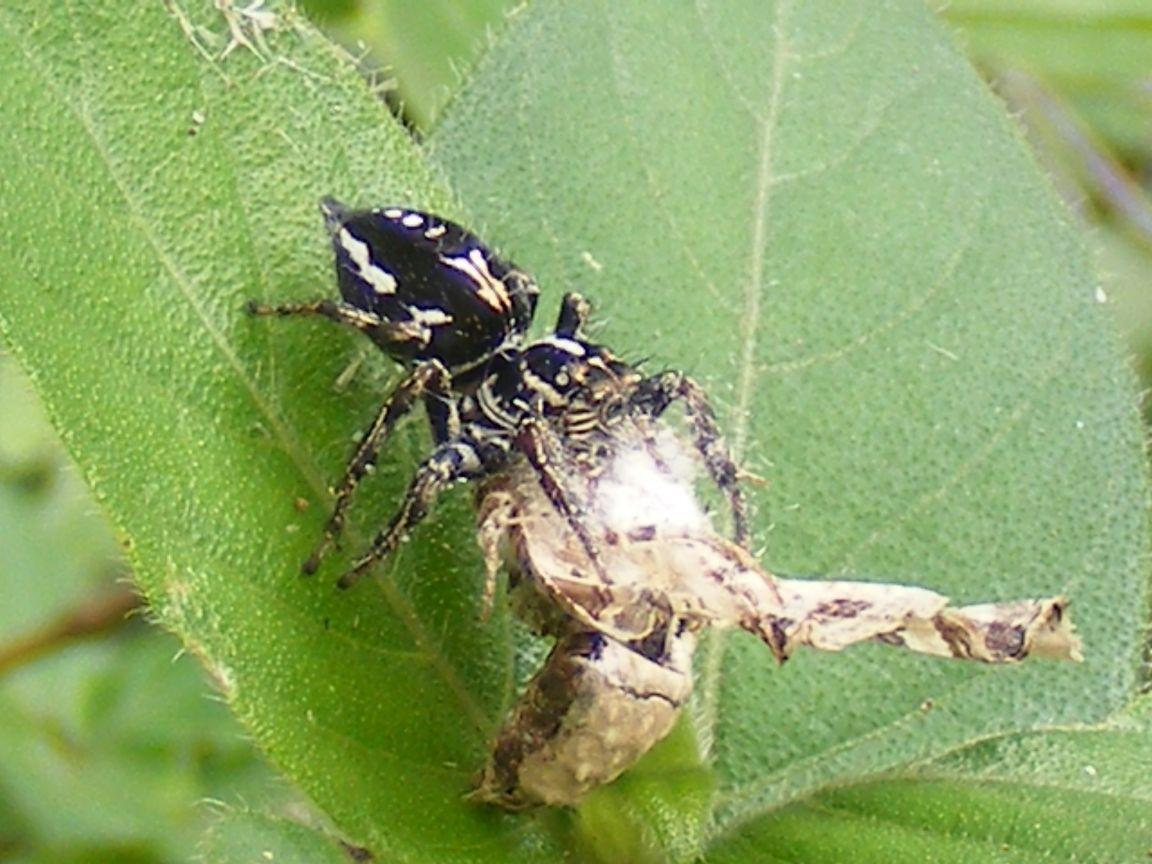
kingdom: Animalia
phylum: Arthropoda
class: Arachnida
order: Araneae
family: Salticidae
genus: Hyllus
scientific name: Hyllus argyrotoxus
